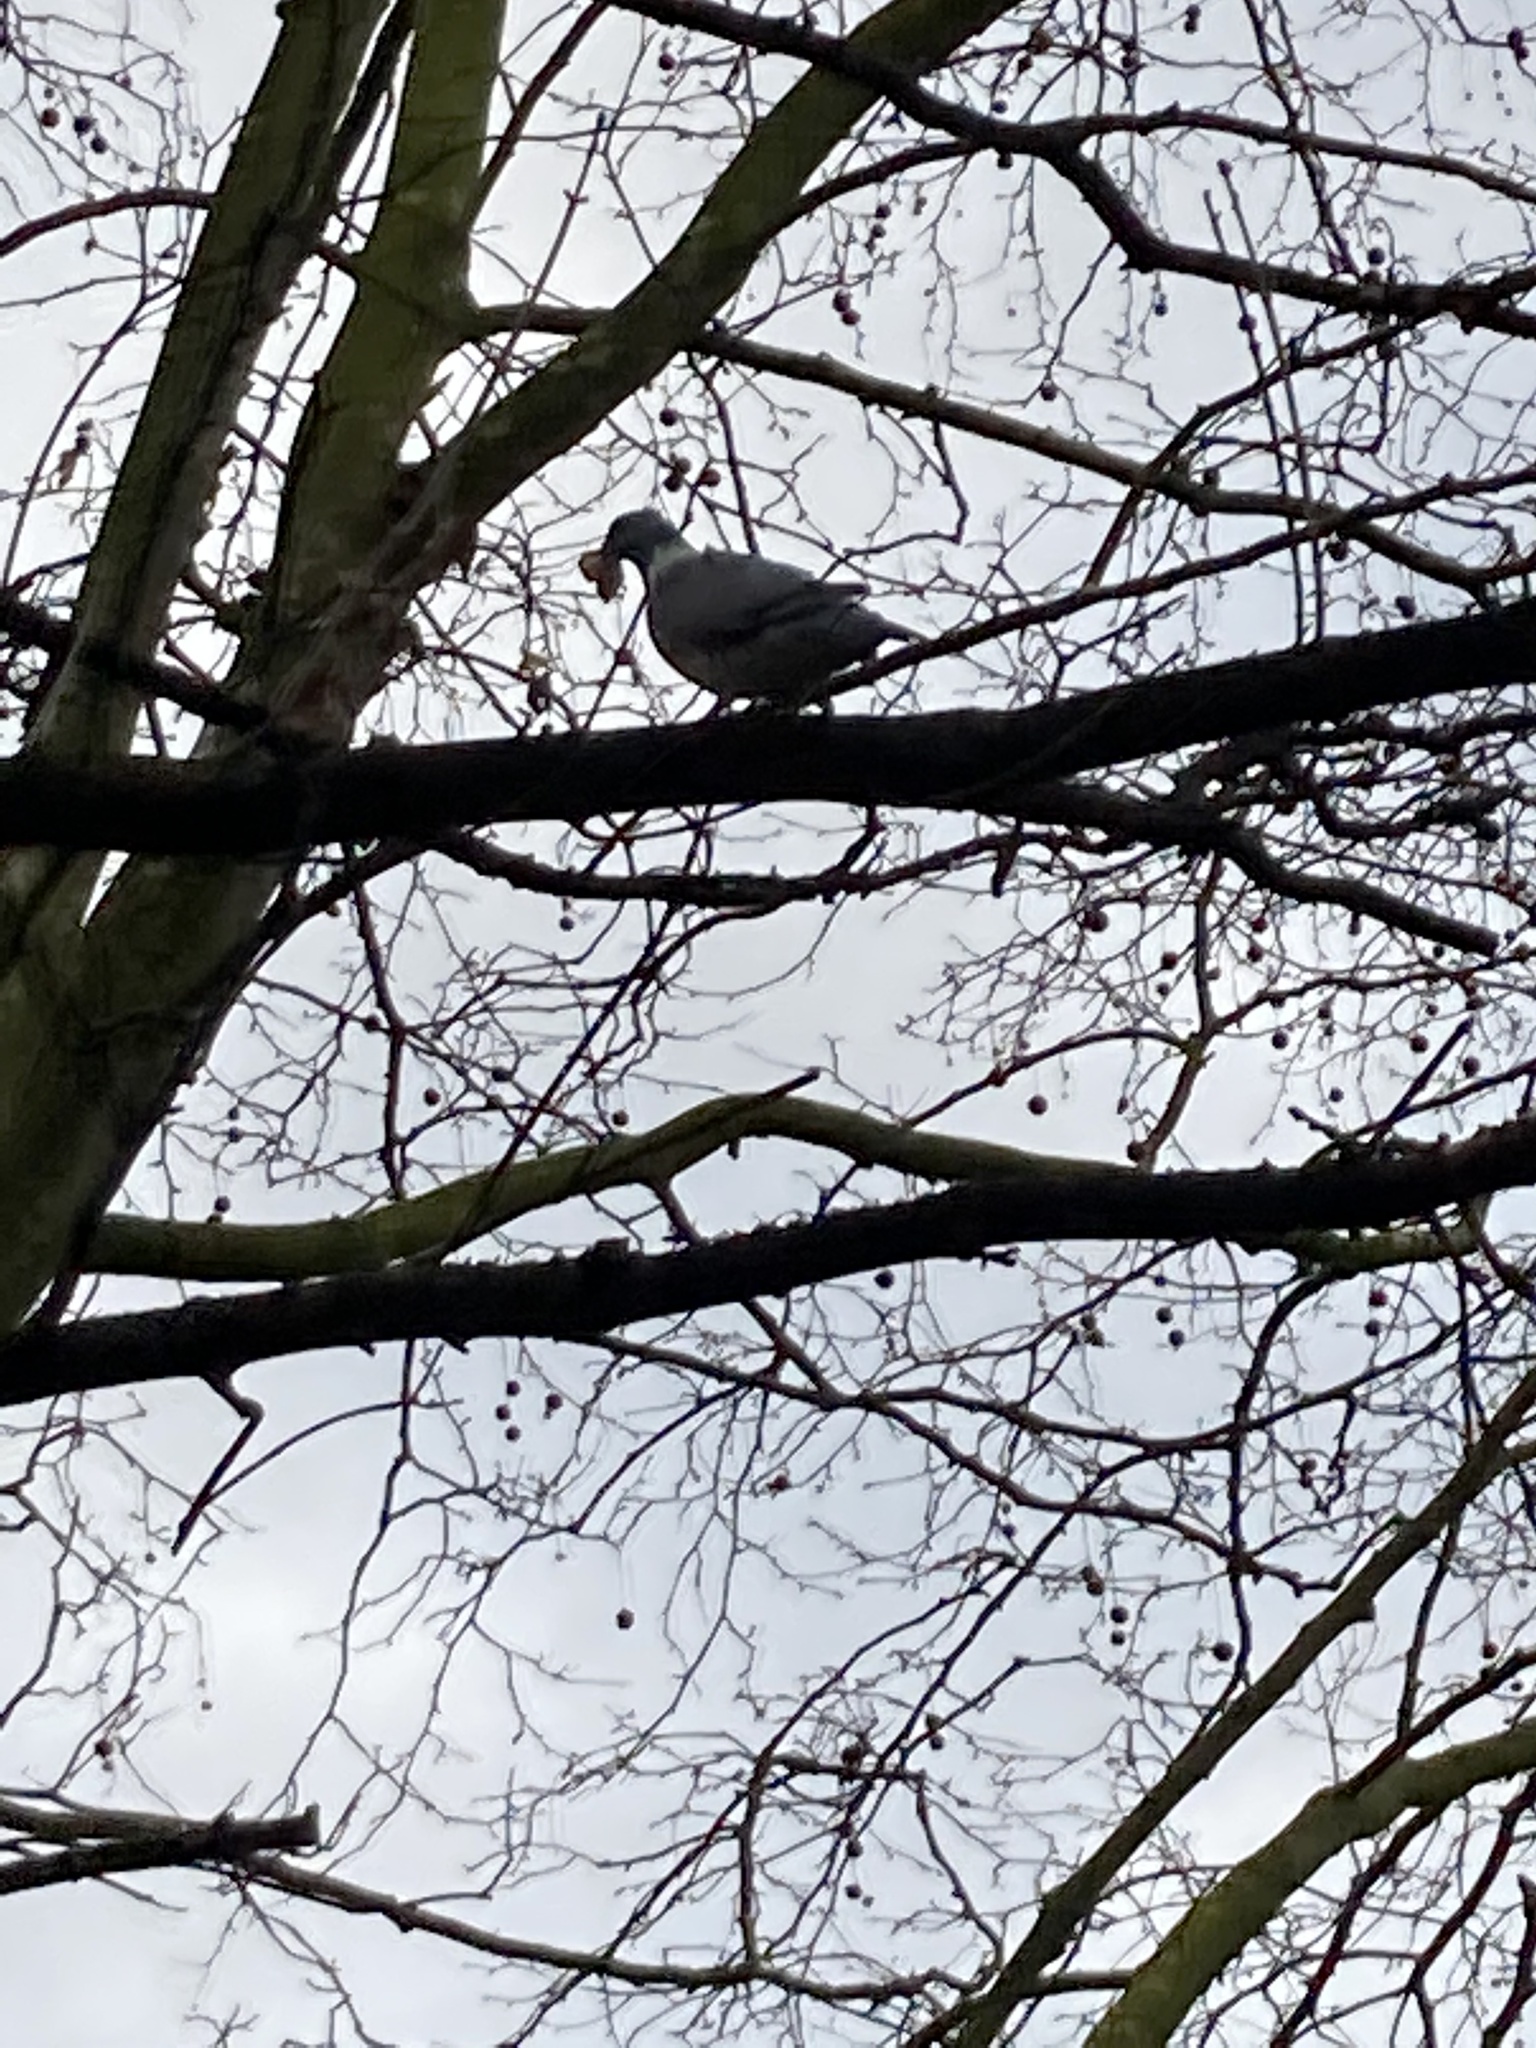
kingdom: Animalia
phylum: Chordata
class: Aves
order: Columbiformes
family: Columbidae
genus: Columba
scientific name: Columba palumbus
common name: Common wood pigeon
